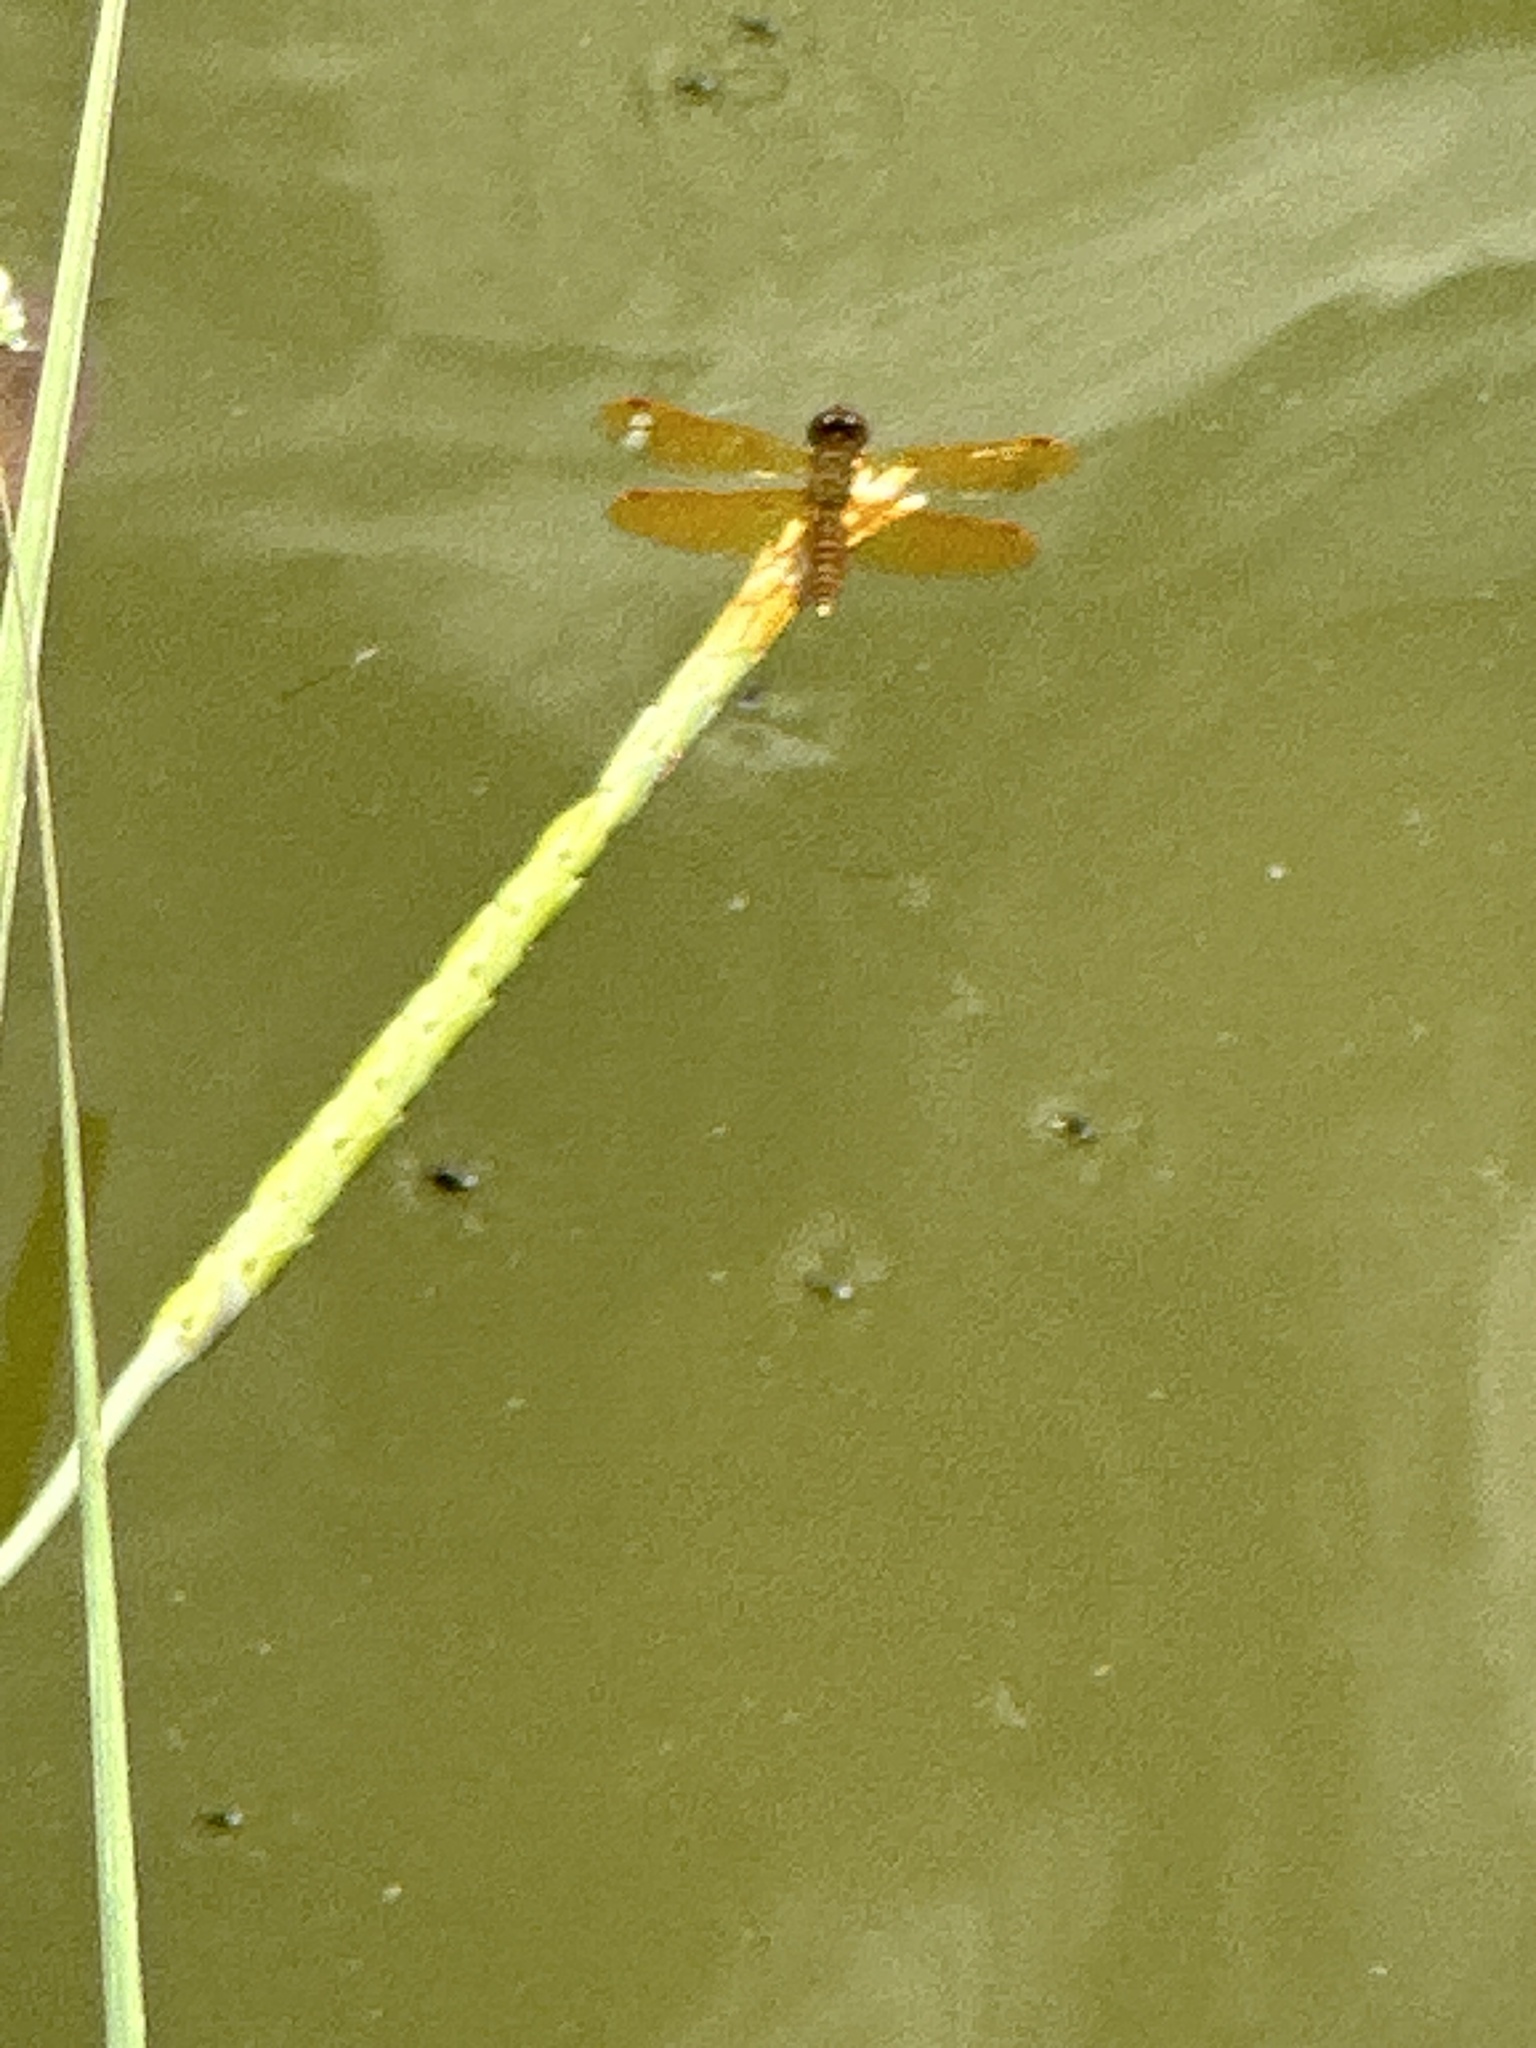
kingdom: Animalia
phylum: Arthropoda
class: Insecta
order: Odonata
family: Libellulidae
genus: Perithemis
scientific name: Perithemis tenera
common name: Eastern amberwing
